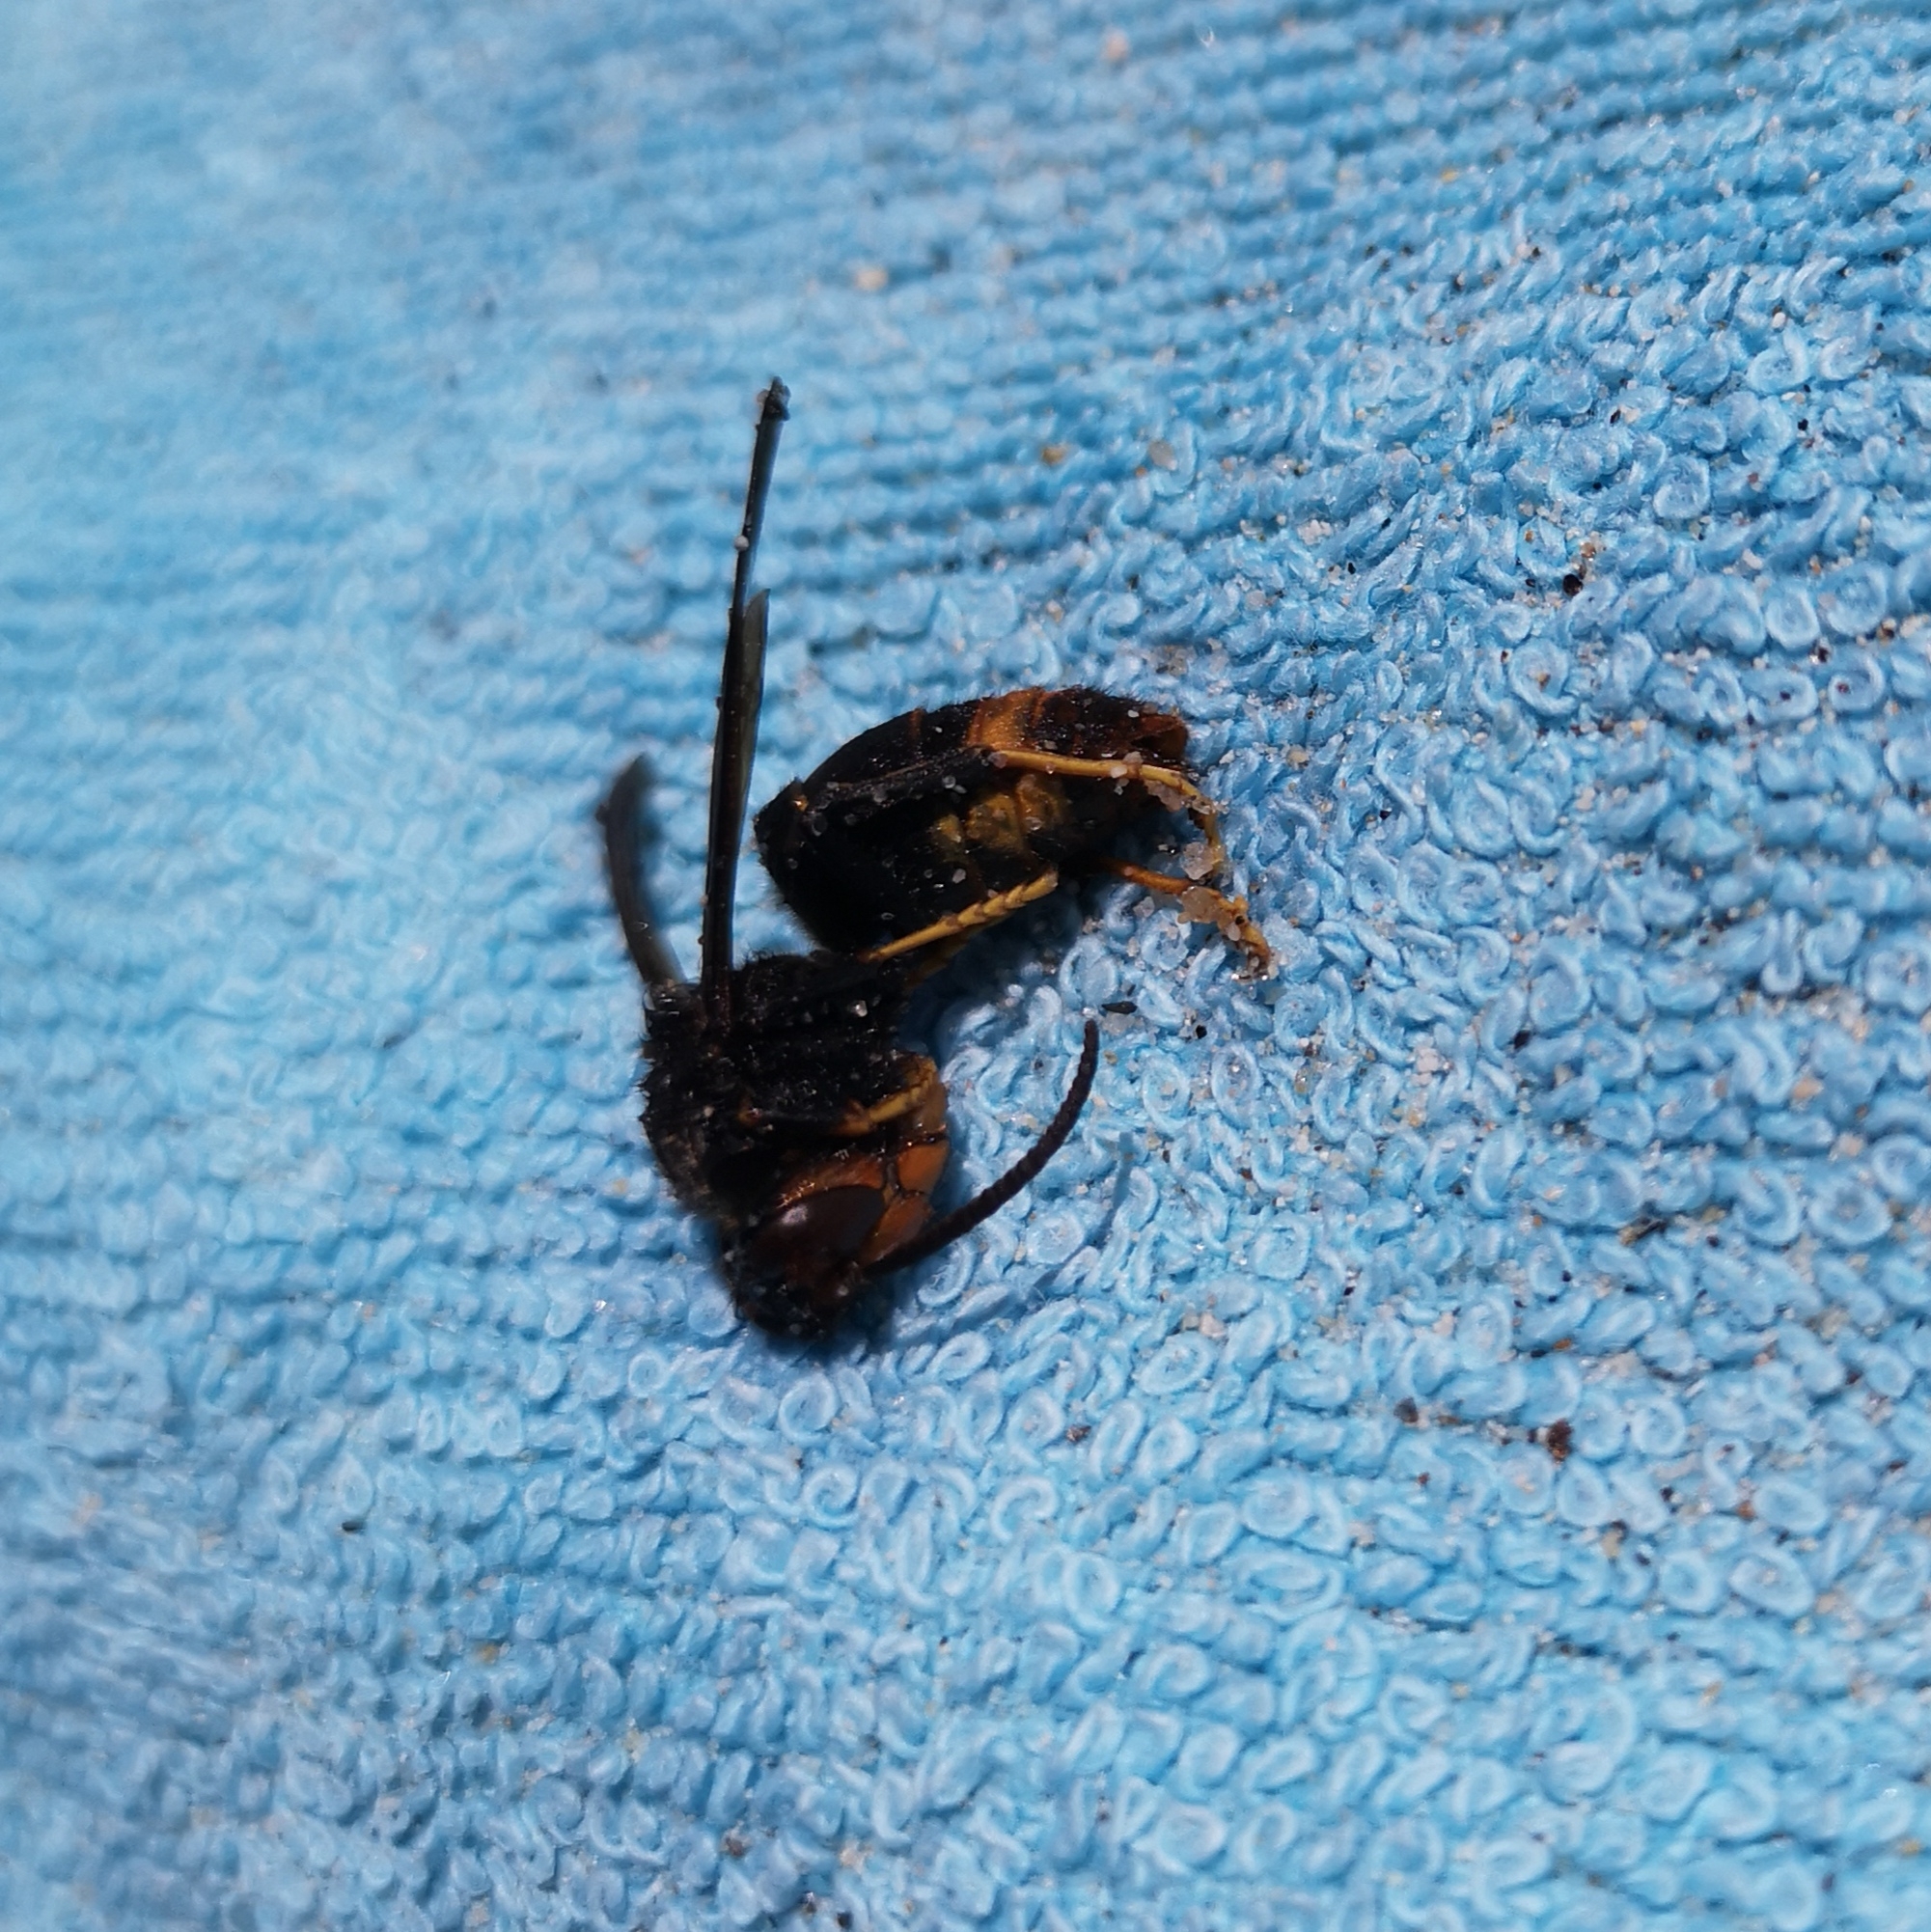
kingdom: Animalia
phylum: Arthropoda
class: Insecta
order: Hymenoptera
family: Vespidae
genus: Vespa
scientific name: Vespa velutina
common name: Asian hornet
